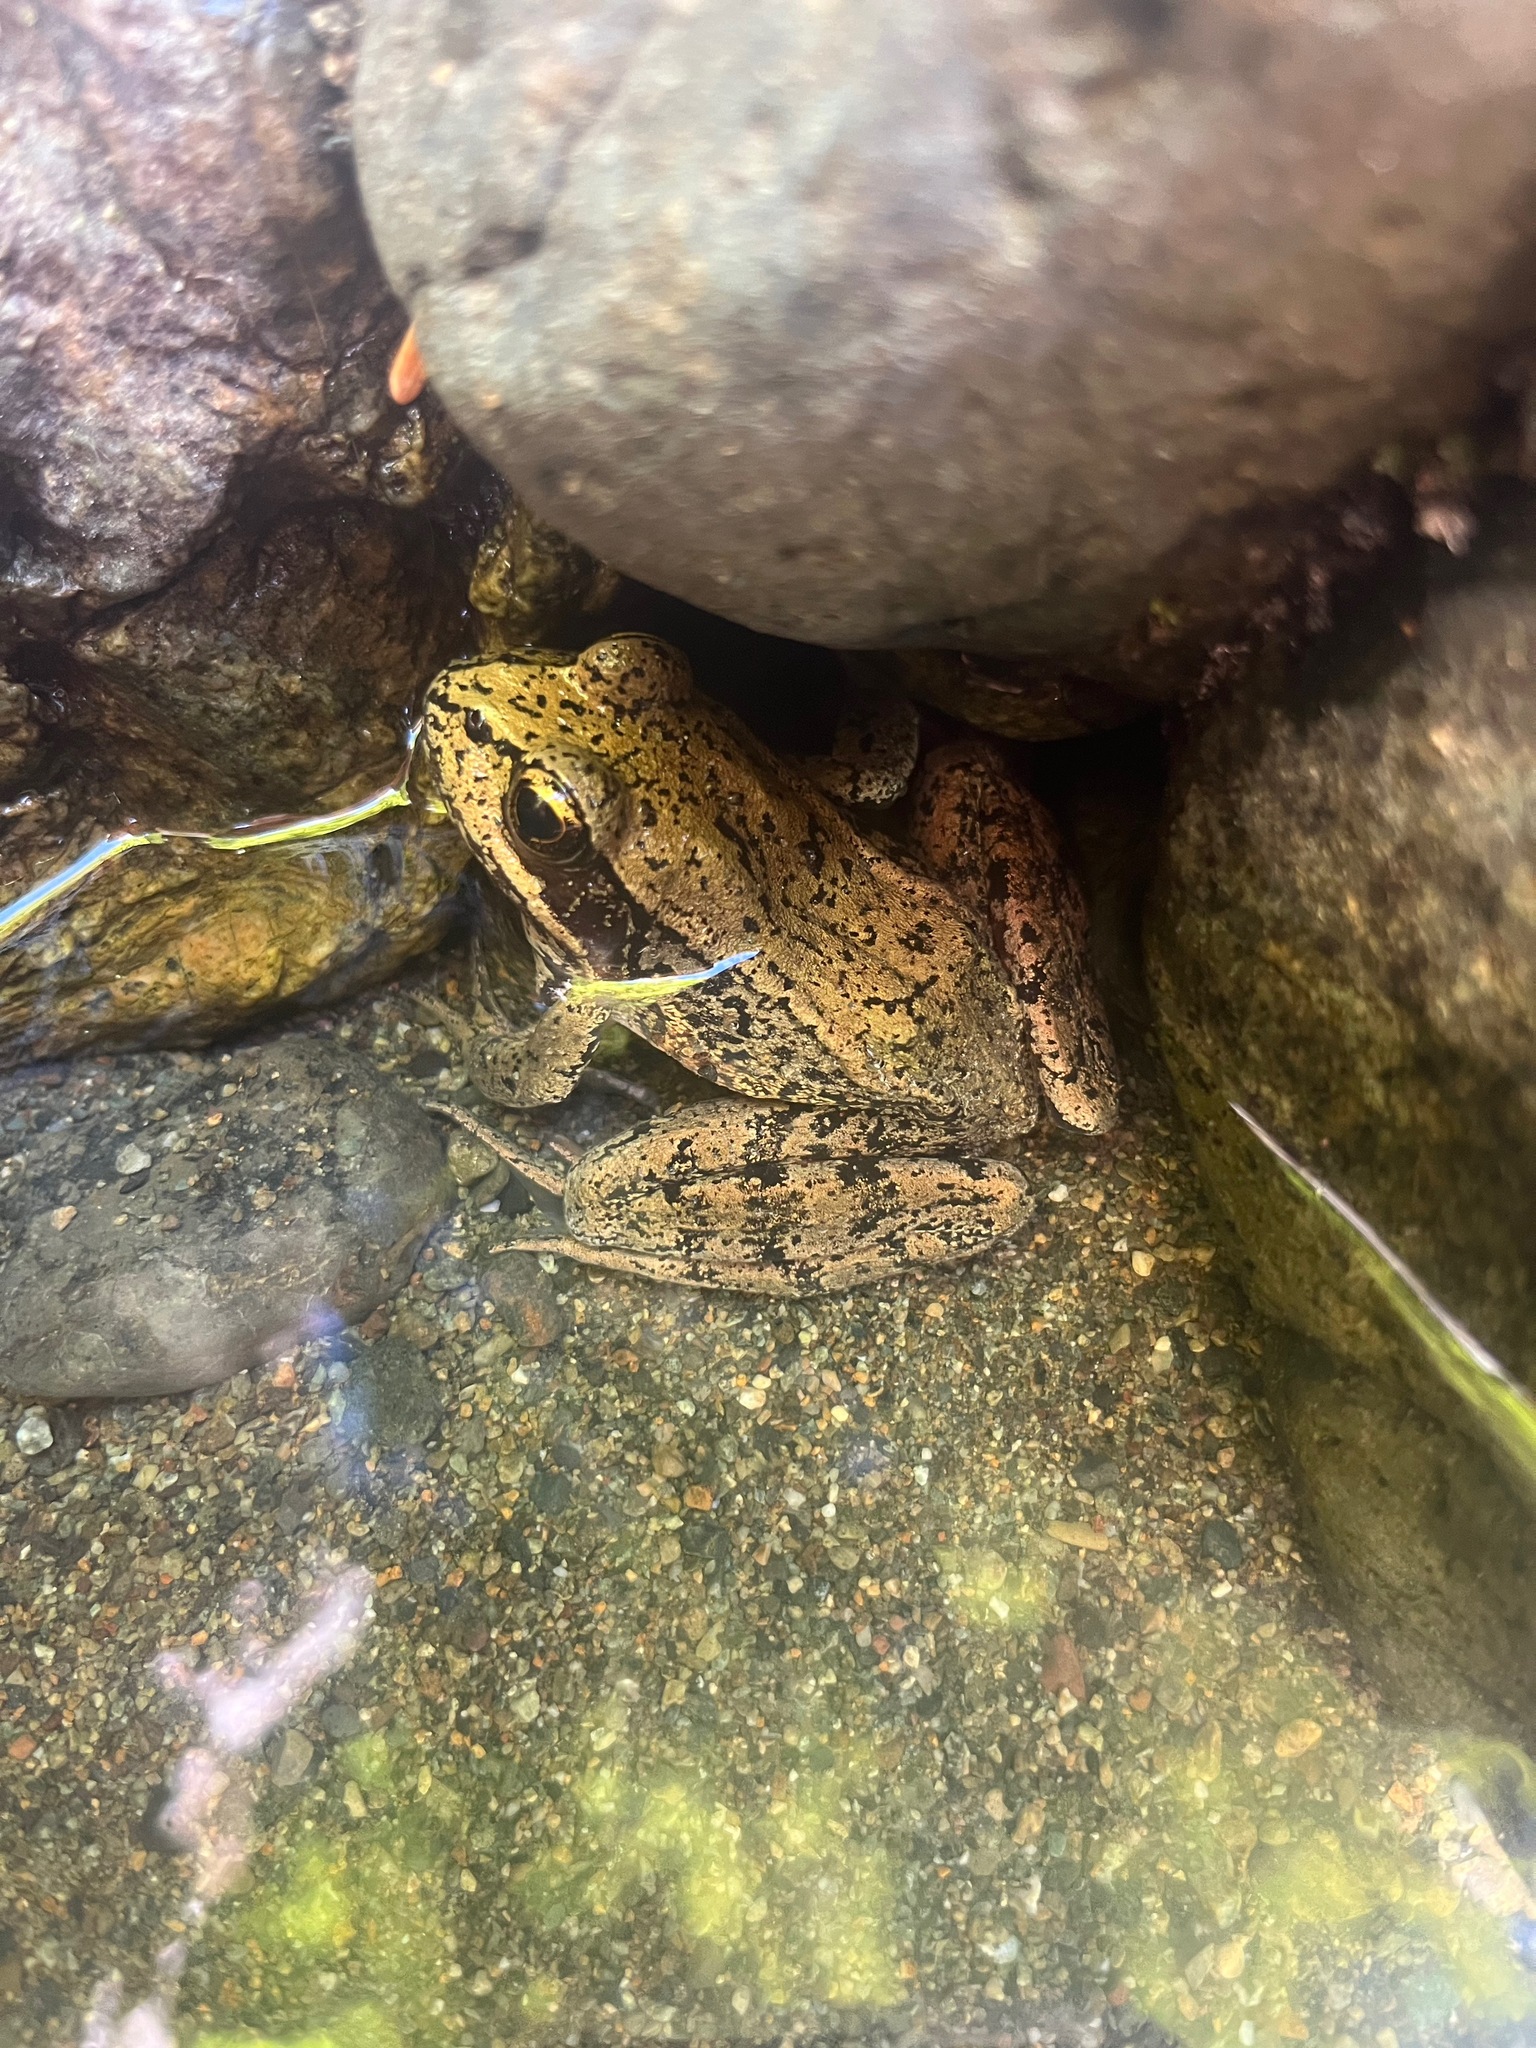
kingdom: Animalia
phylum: Chordata
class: Amphibia
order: Anura
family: Ranidae
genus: Rana
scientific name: Rana aurora
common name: Red-legged frog
